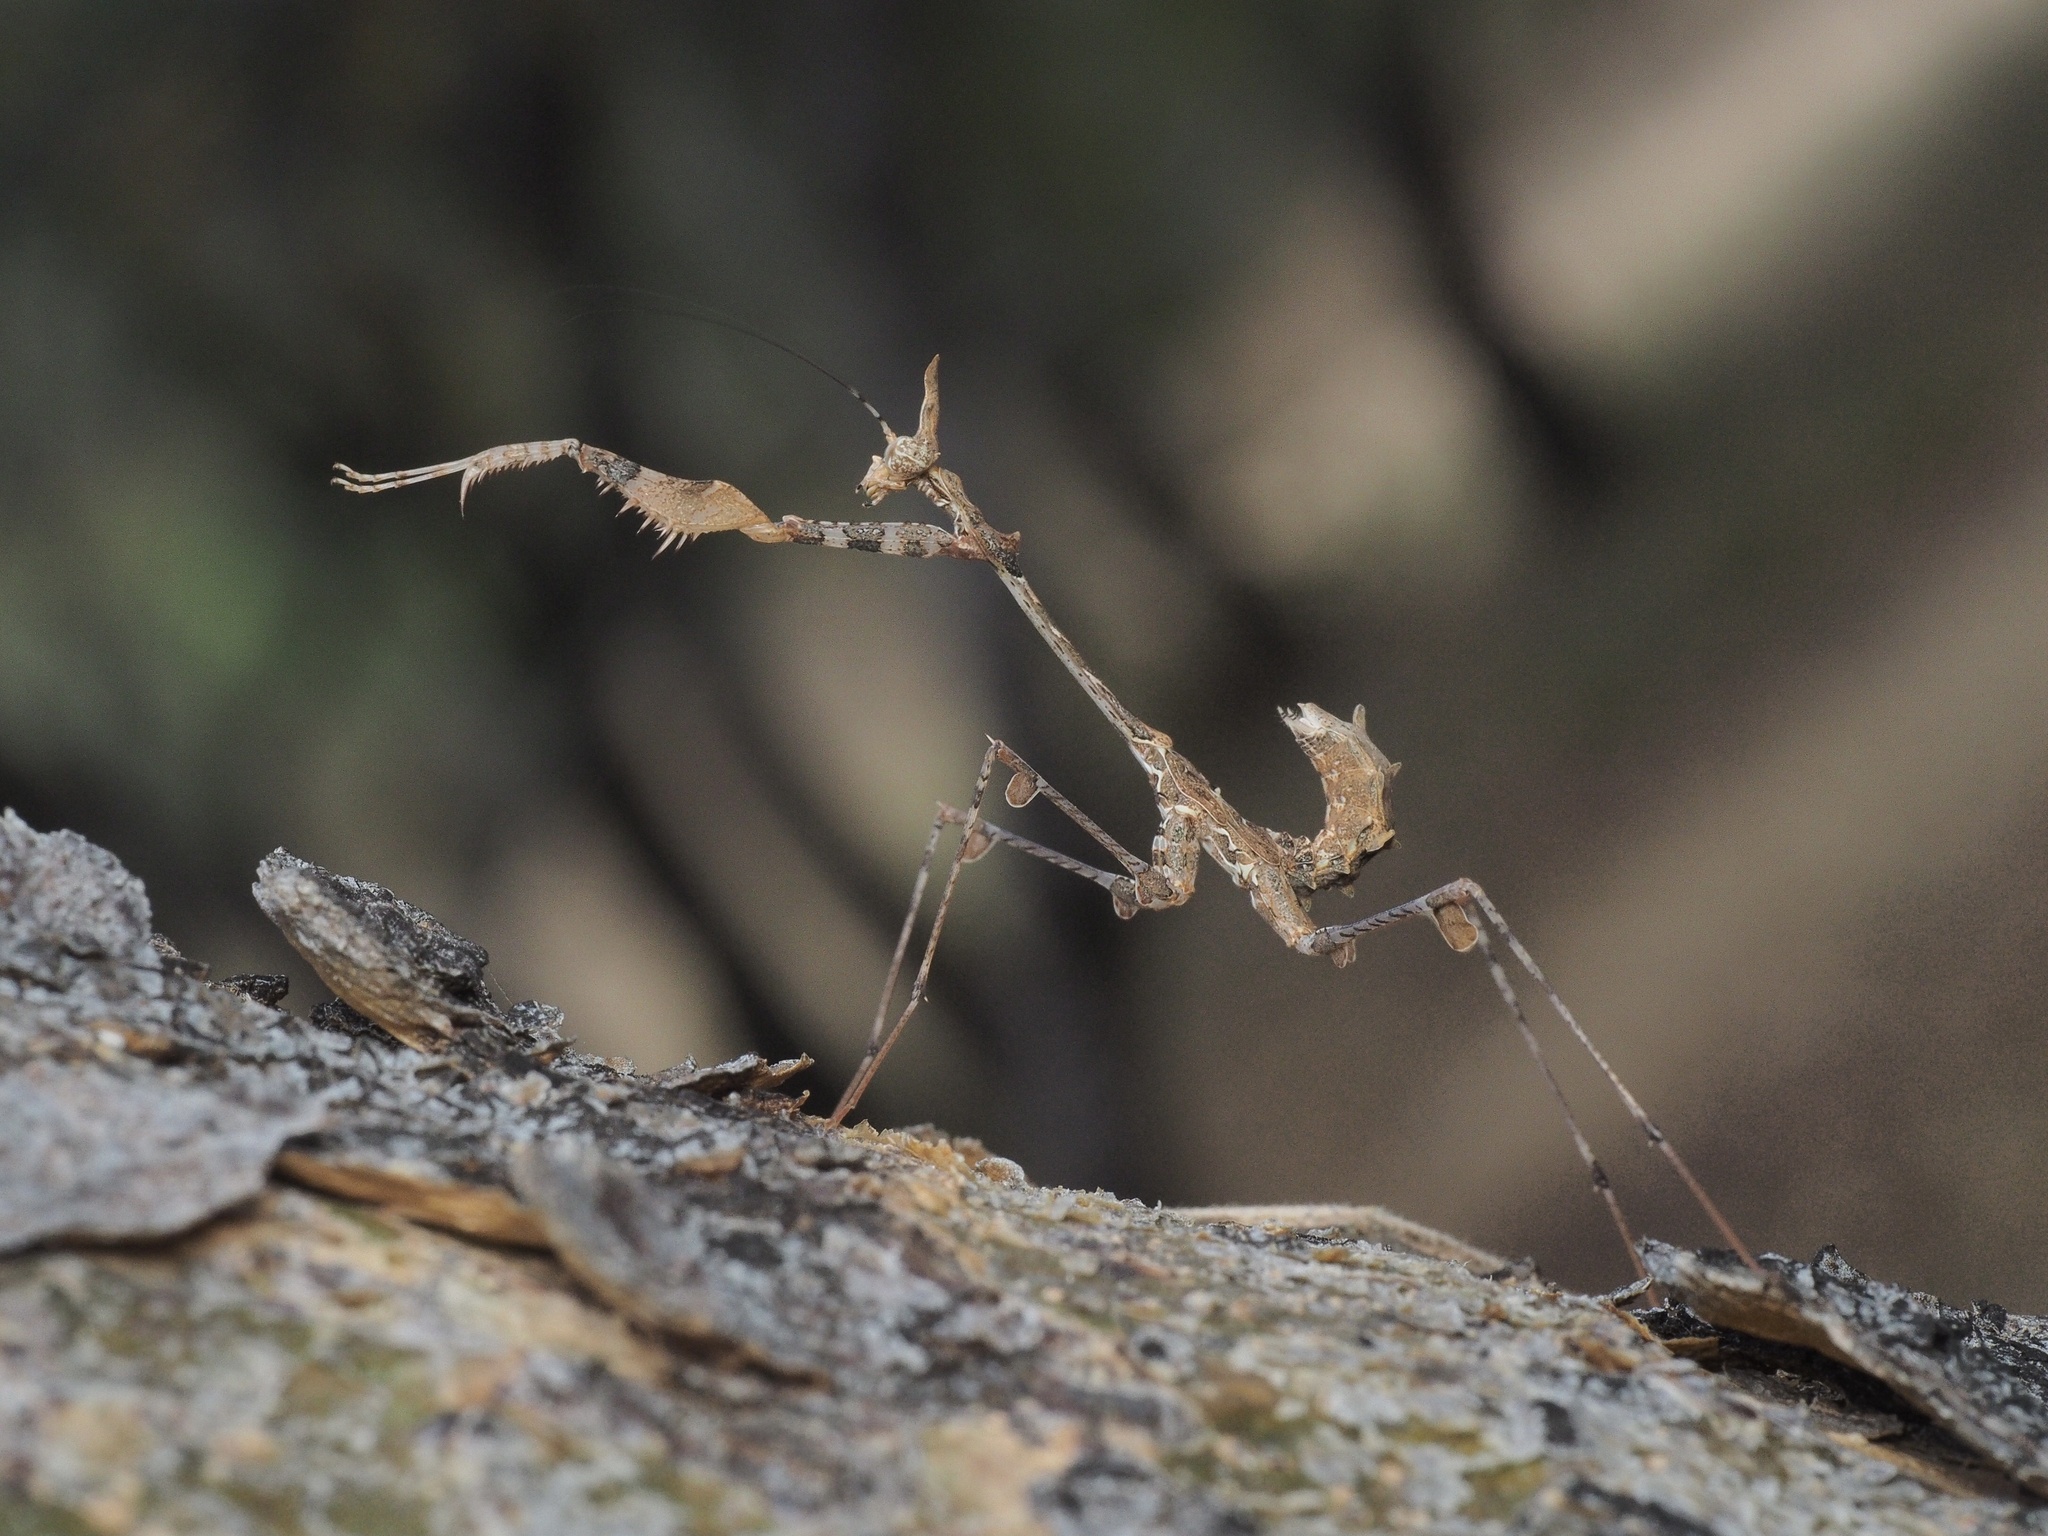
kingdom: Animalia
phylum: Arthropoda
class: Insecta
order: Mantodea
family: Hymenopodidae
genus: Sibylla
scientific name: Sibylla pretiosa
